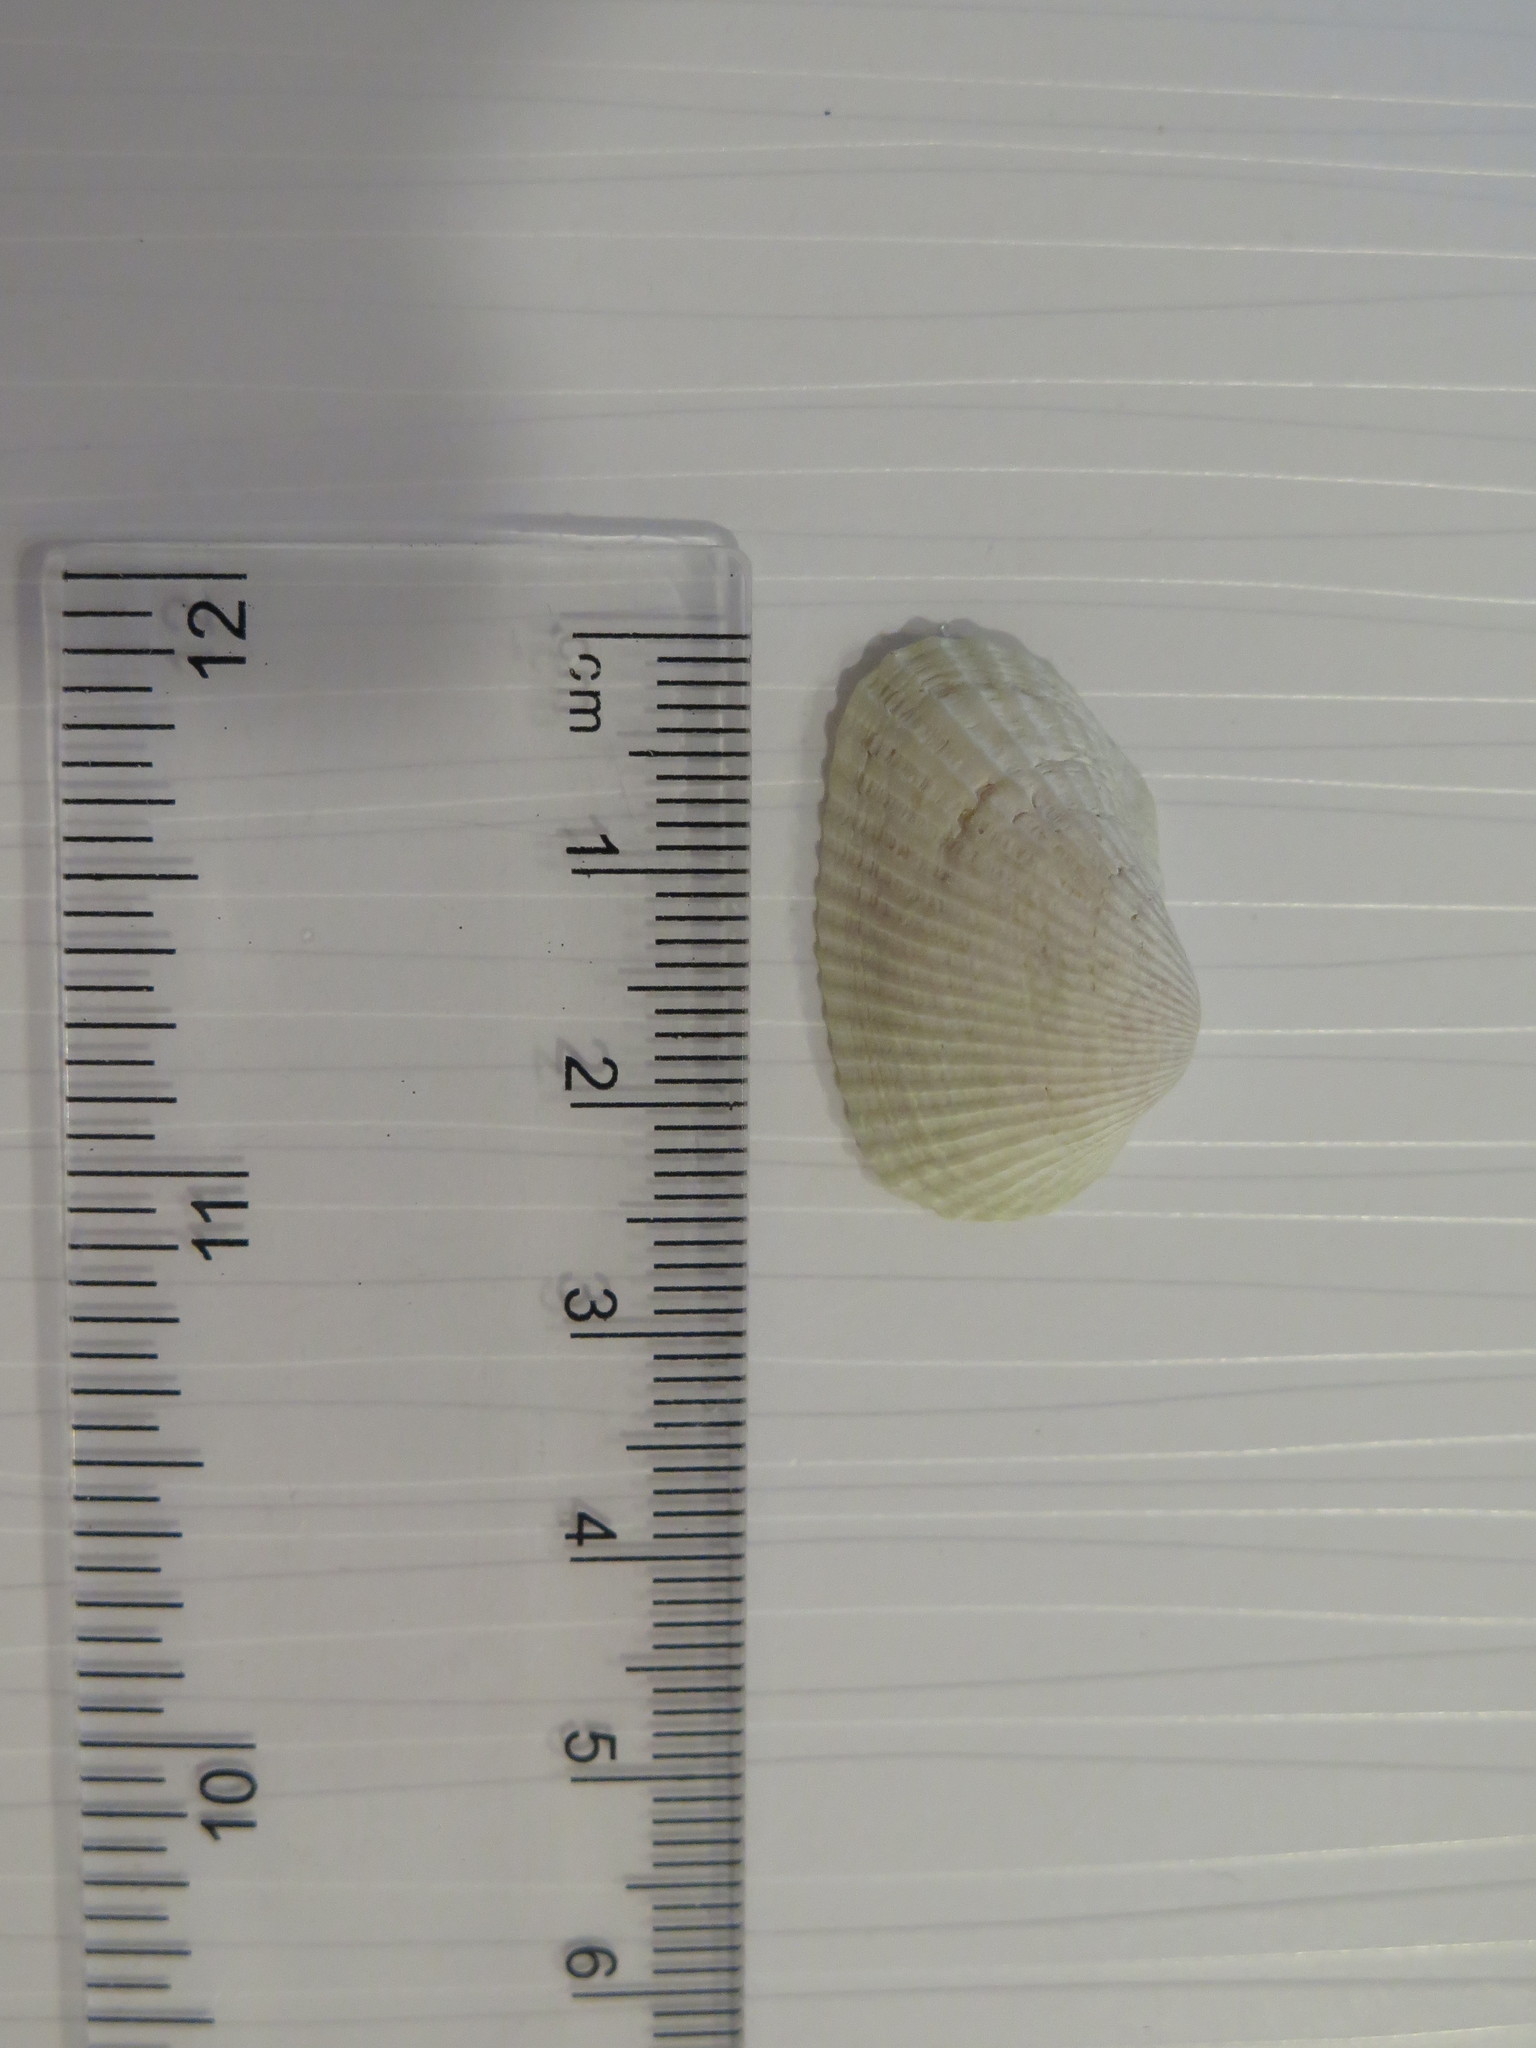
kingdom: Animalia
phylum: Mollusca
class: Bivalvia
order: Arcida
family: Arcidae
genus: Anadara
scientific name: Anadara transversa
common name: Transverse ark
